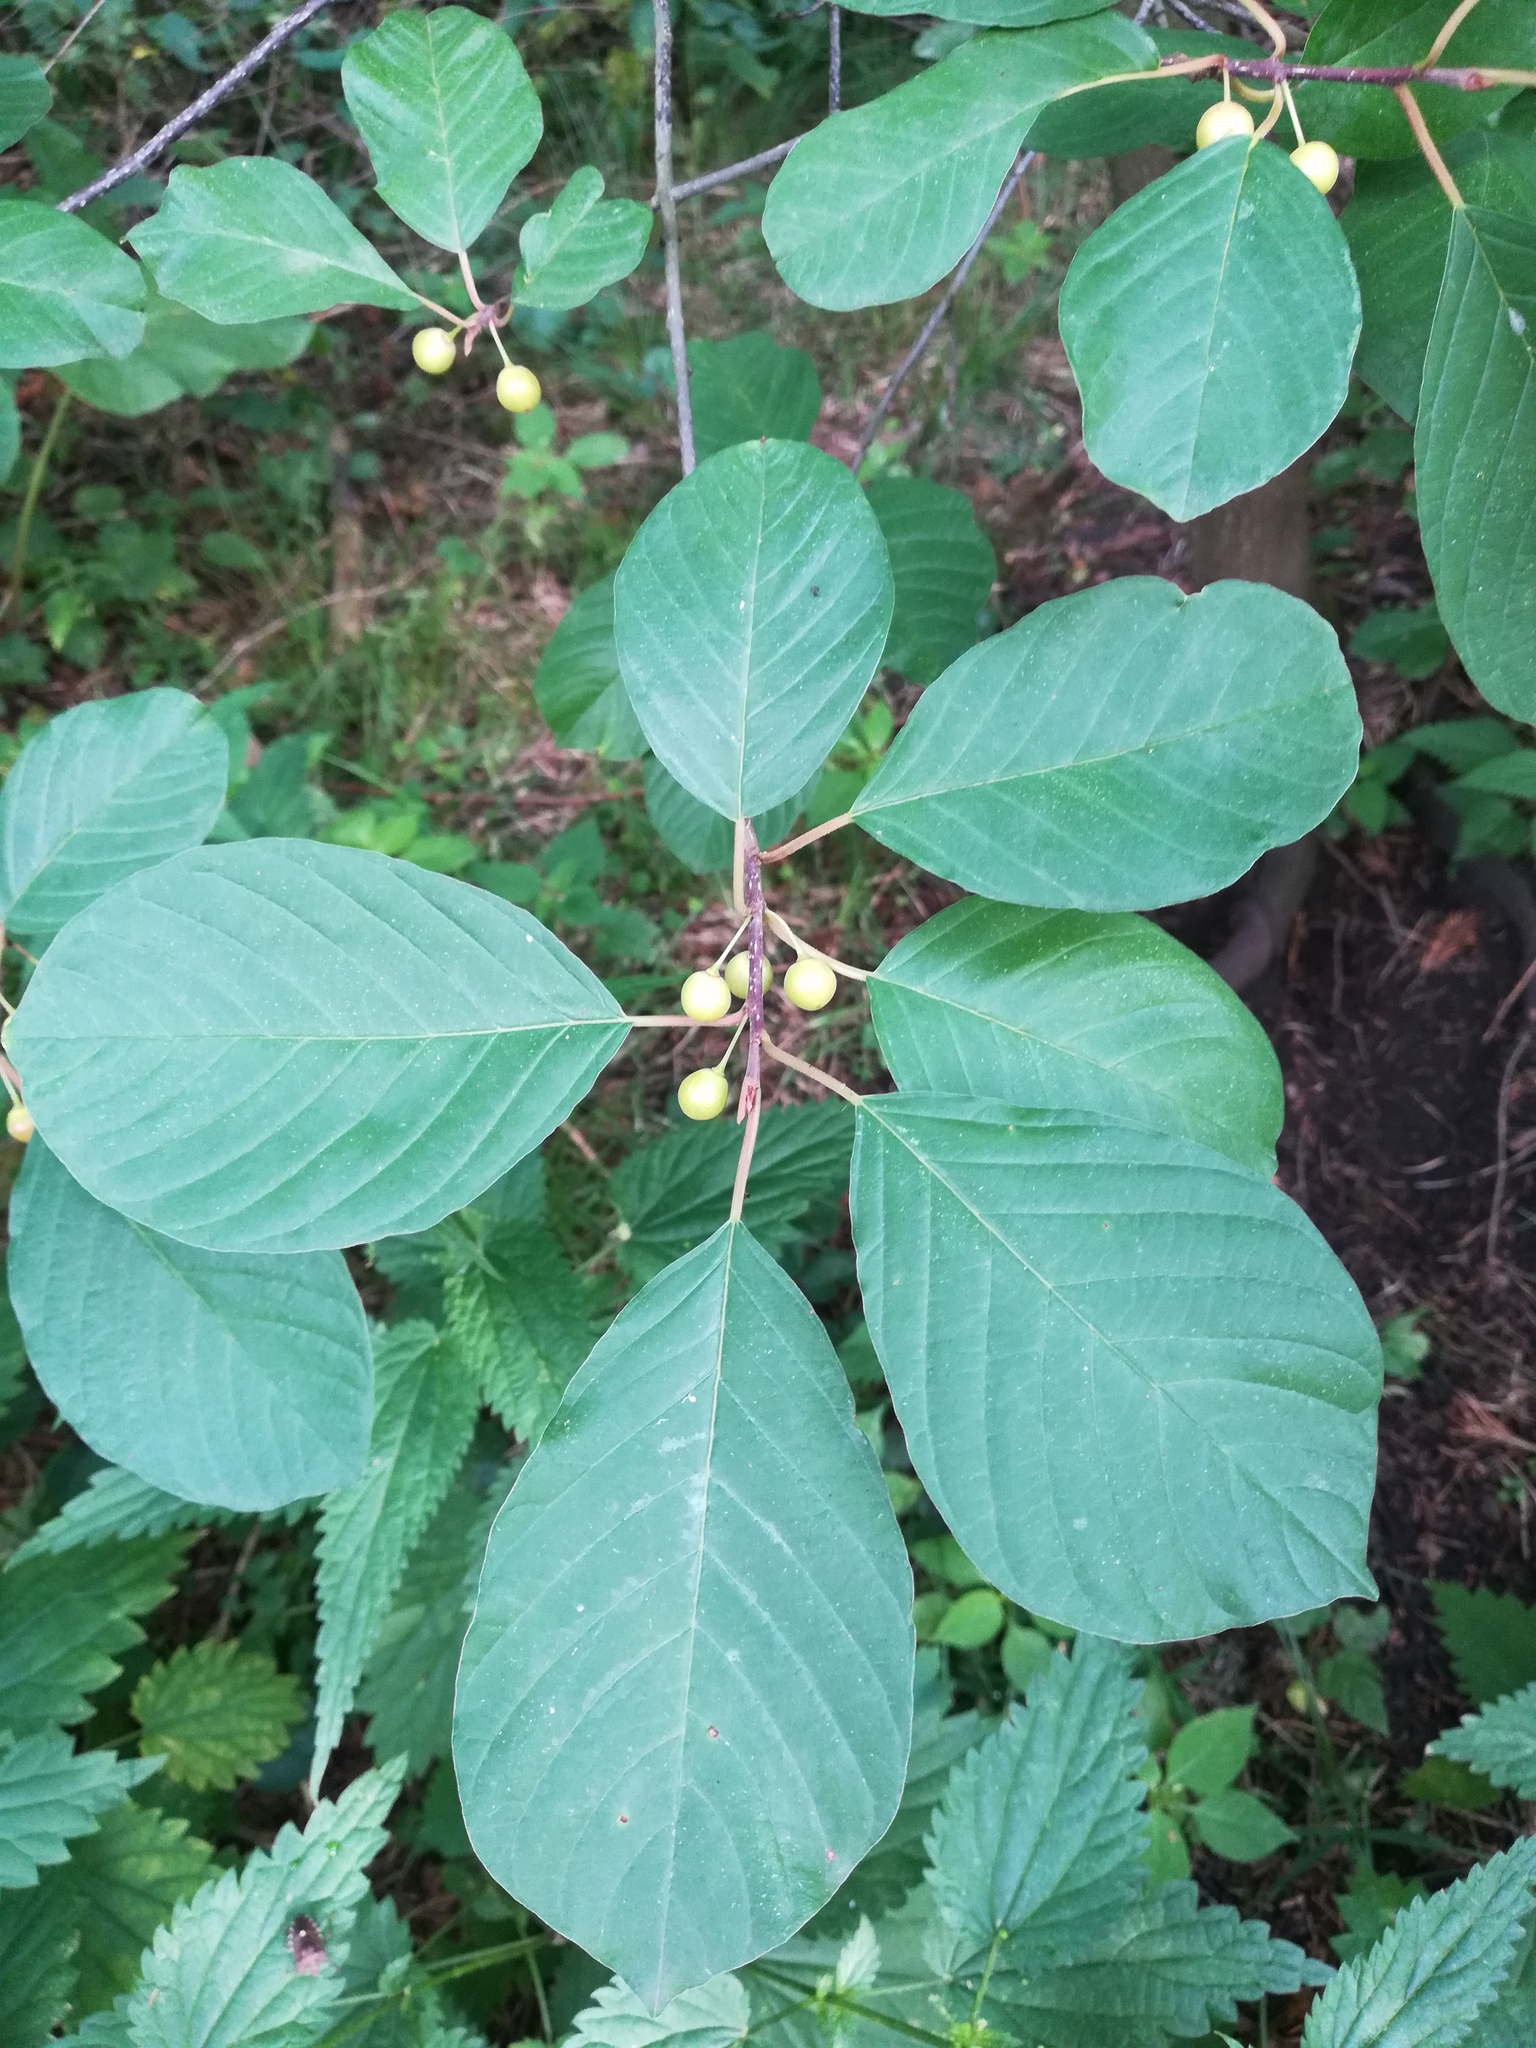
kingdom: Plantae
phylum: Tracheophyta
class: Magnoliopsida
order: Rosales
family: Rhamnaceae
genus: Frangula
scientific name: Frangula alnus
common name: Alder buckthorn
